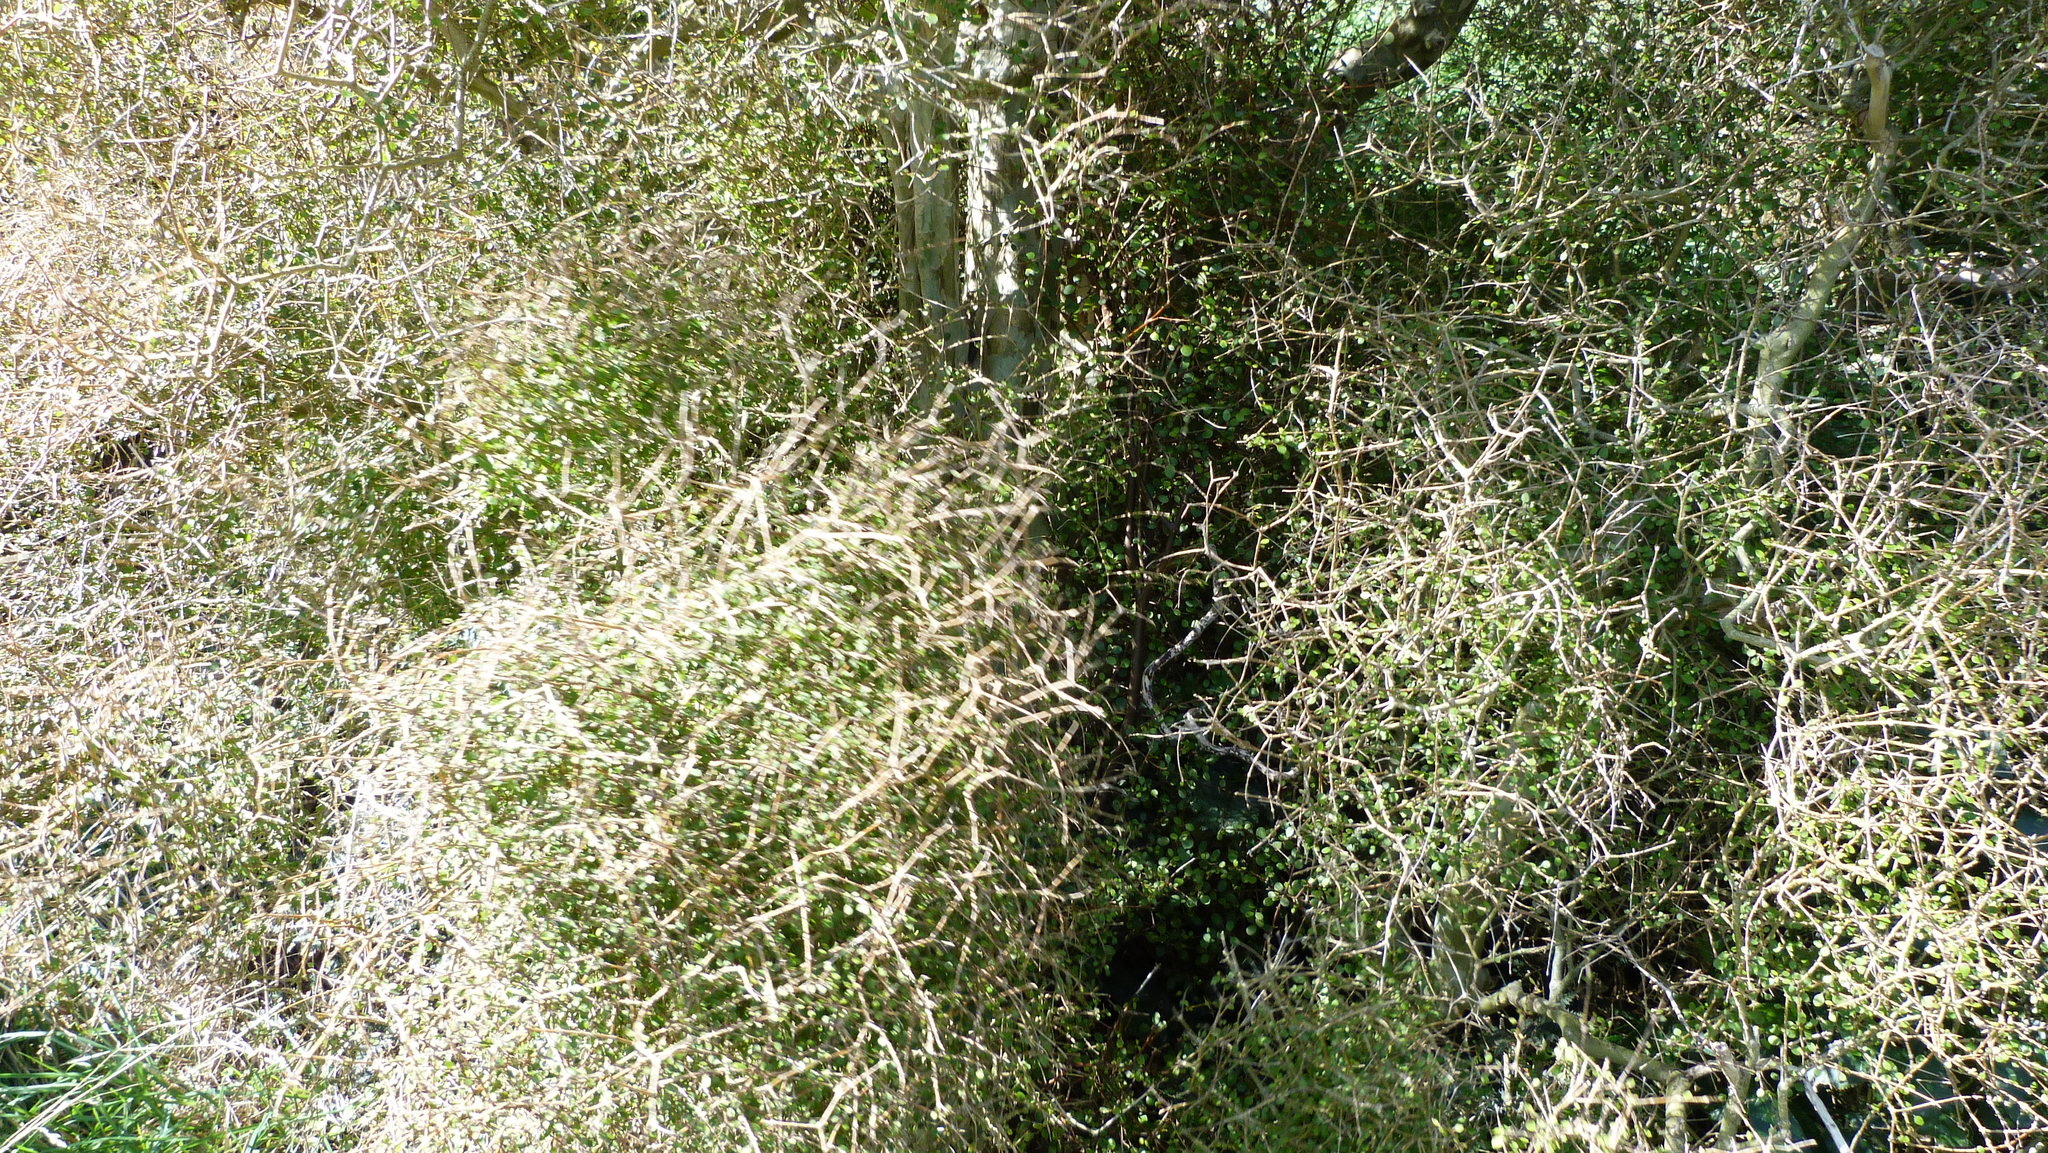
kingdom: Plantae
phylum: Tracheophyta
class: Magnoliopsida
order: Gentianales
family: Rubiaceae
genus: Coprosma
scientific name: Coprosma virescens
